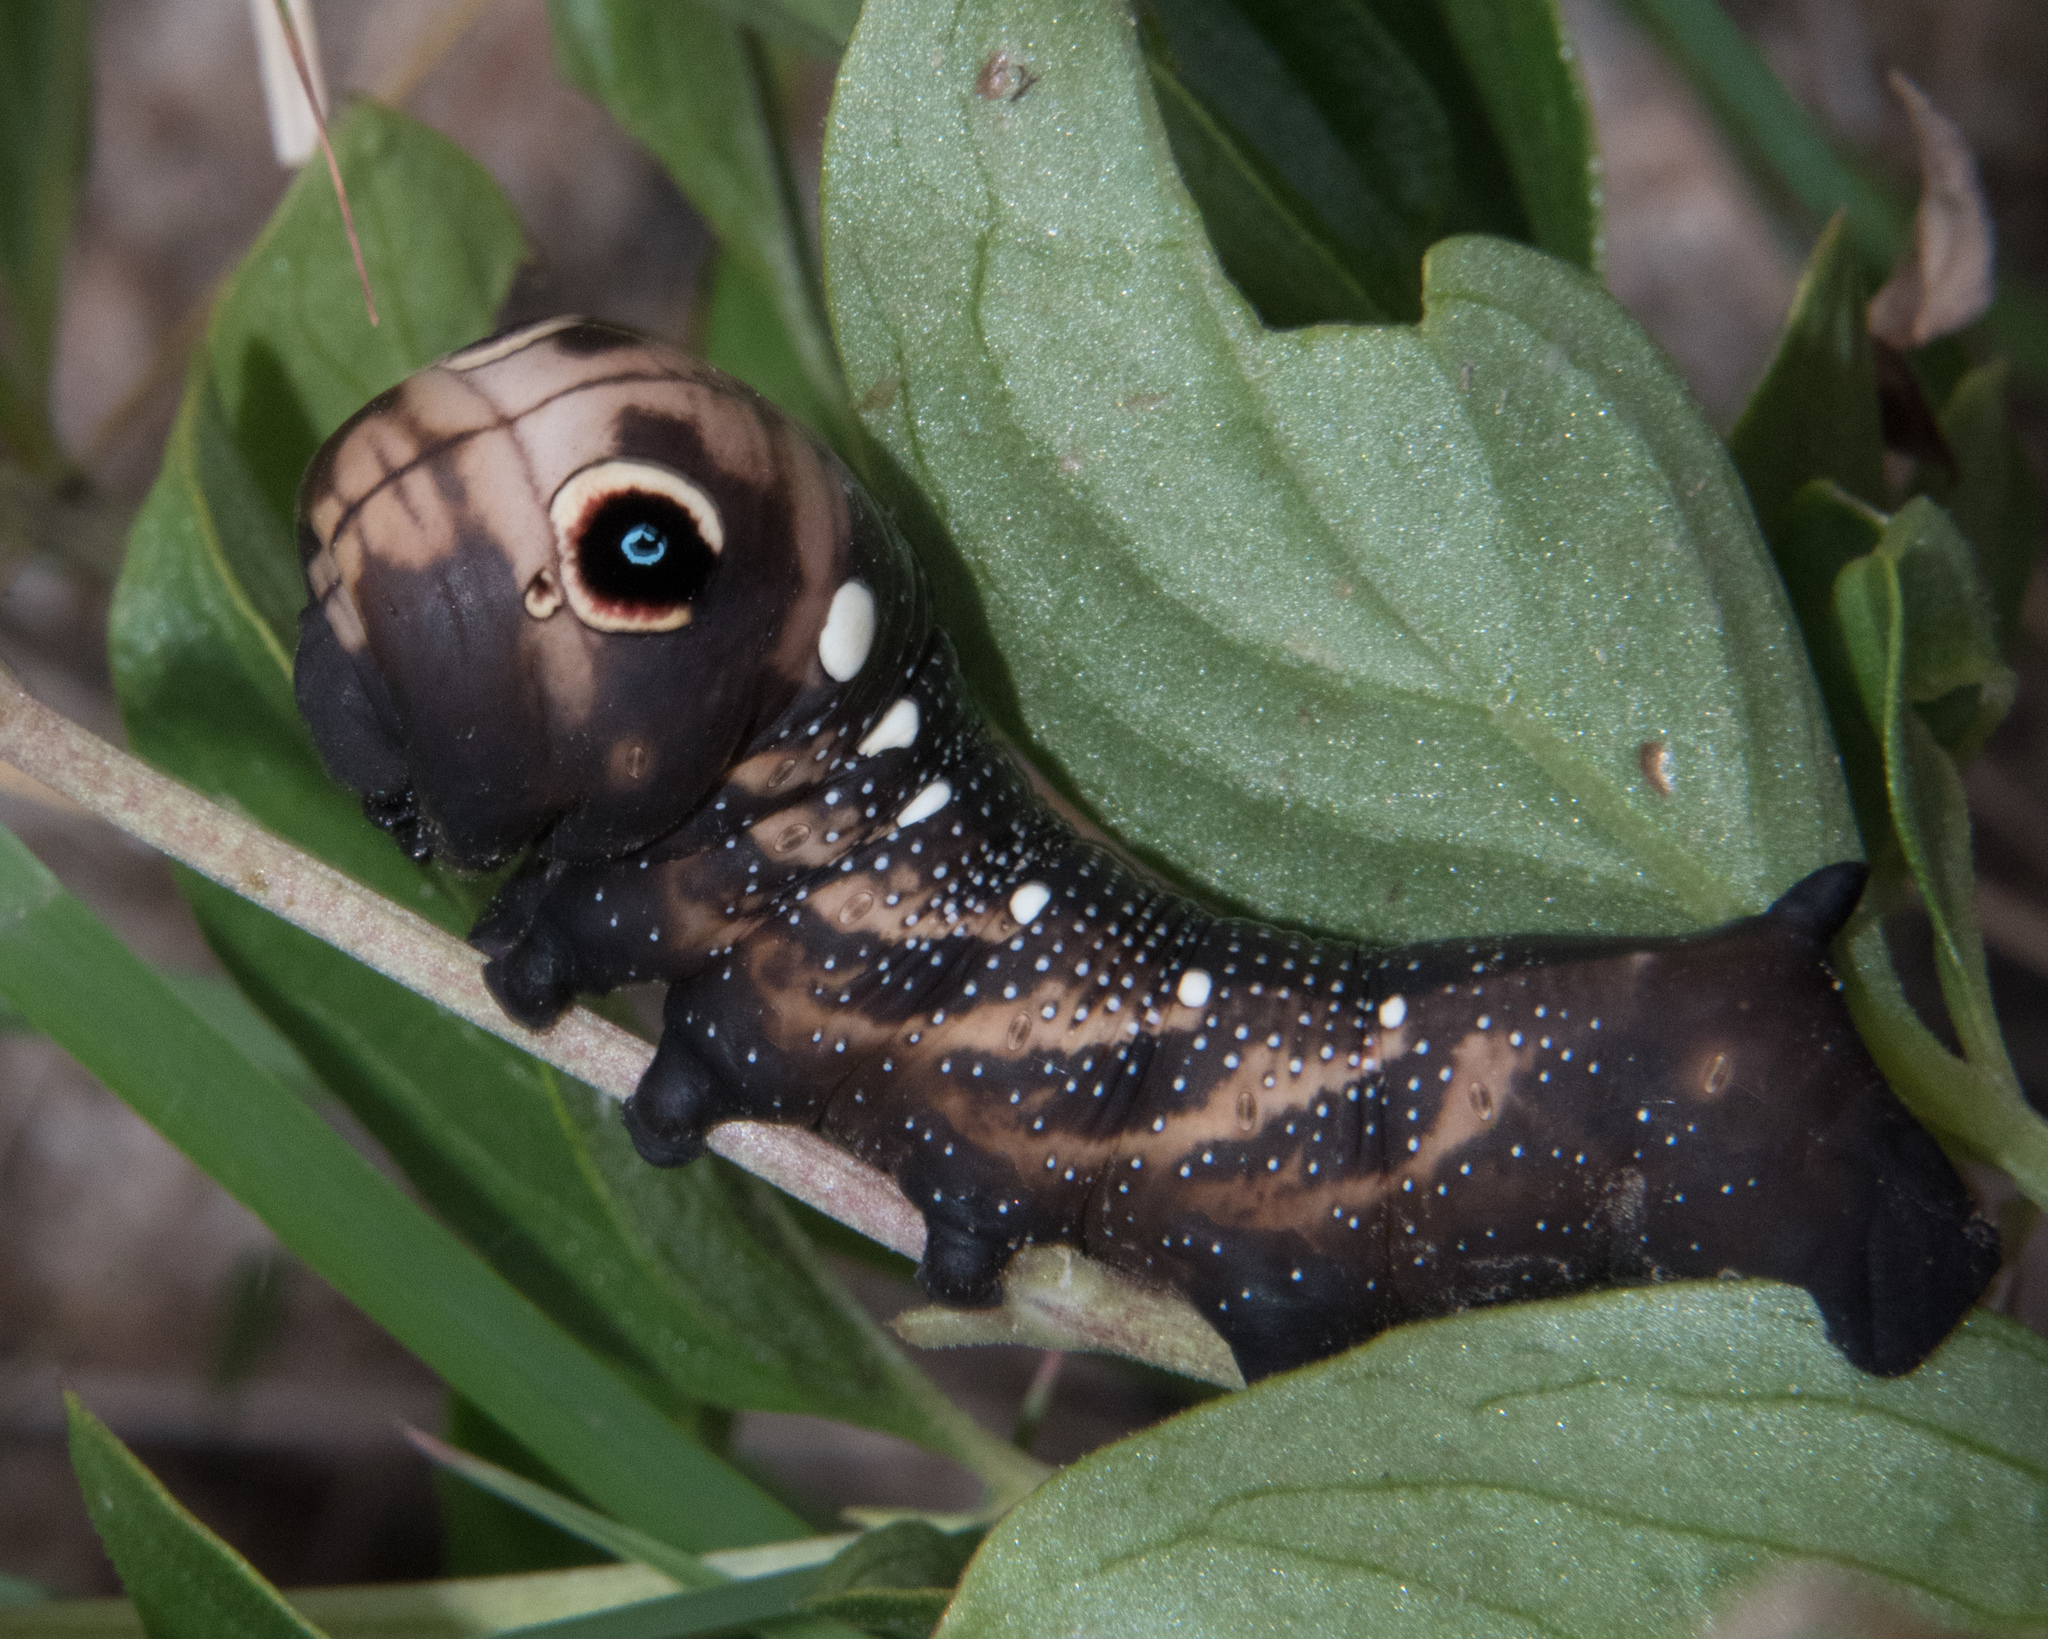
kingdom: Animalia
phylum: Arthropoda
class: Insecta
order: Lepidoptera
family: Sphingidae
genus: Xylophanes
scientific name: Xylophanes falco
